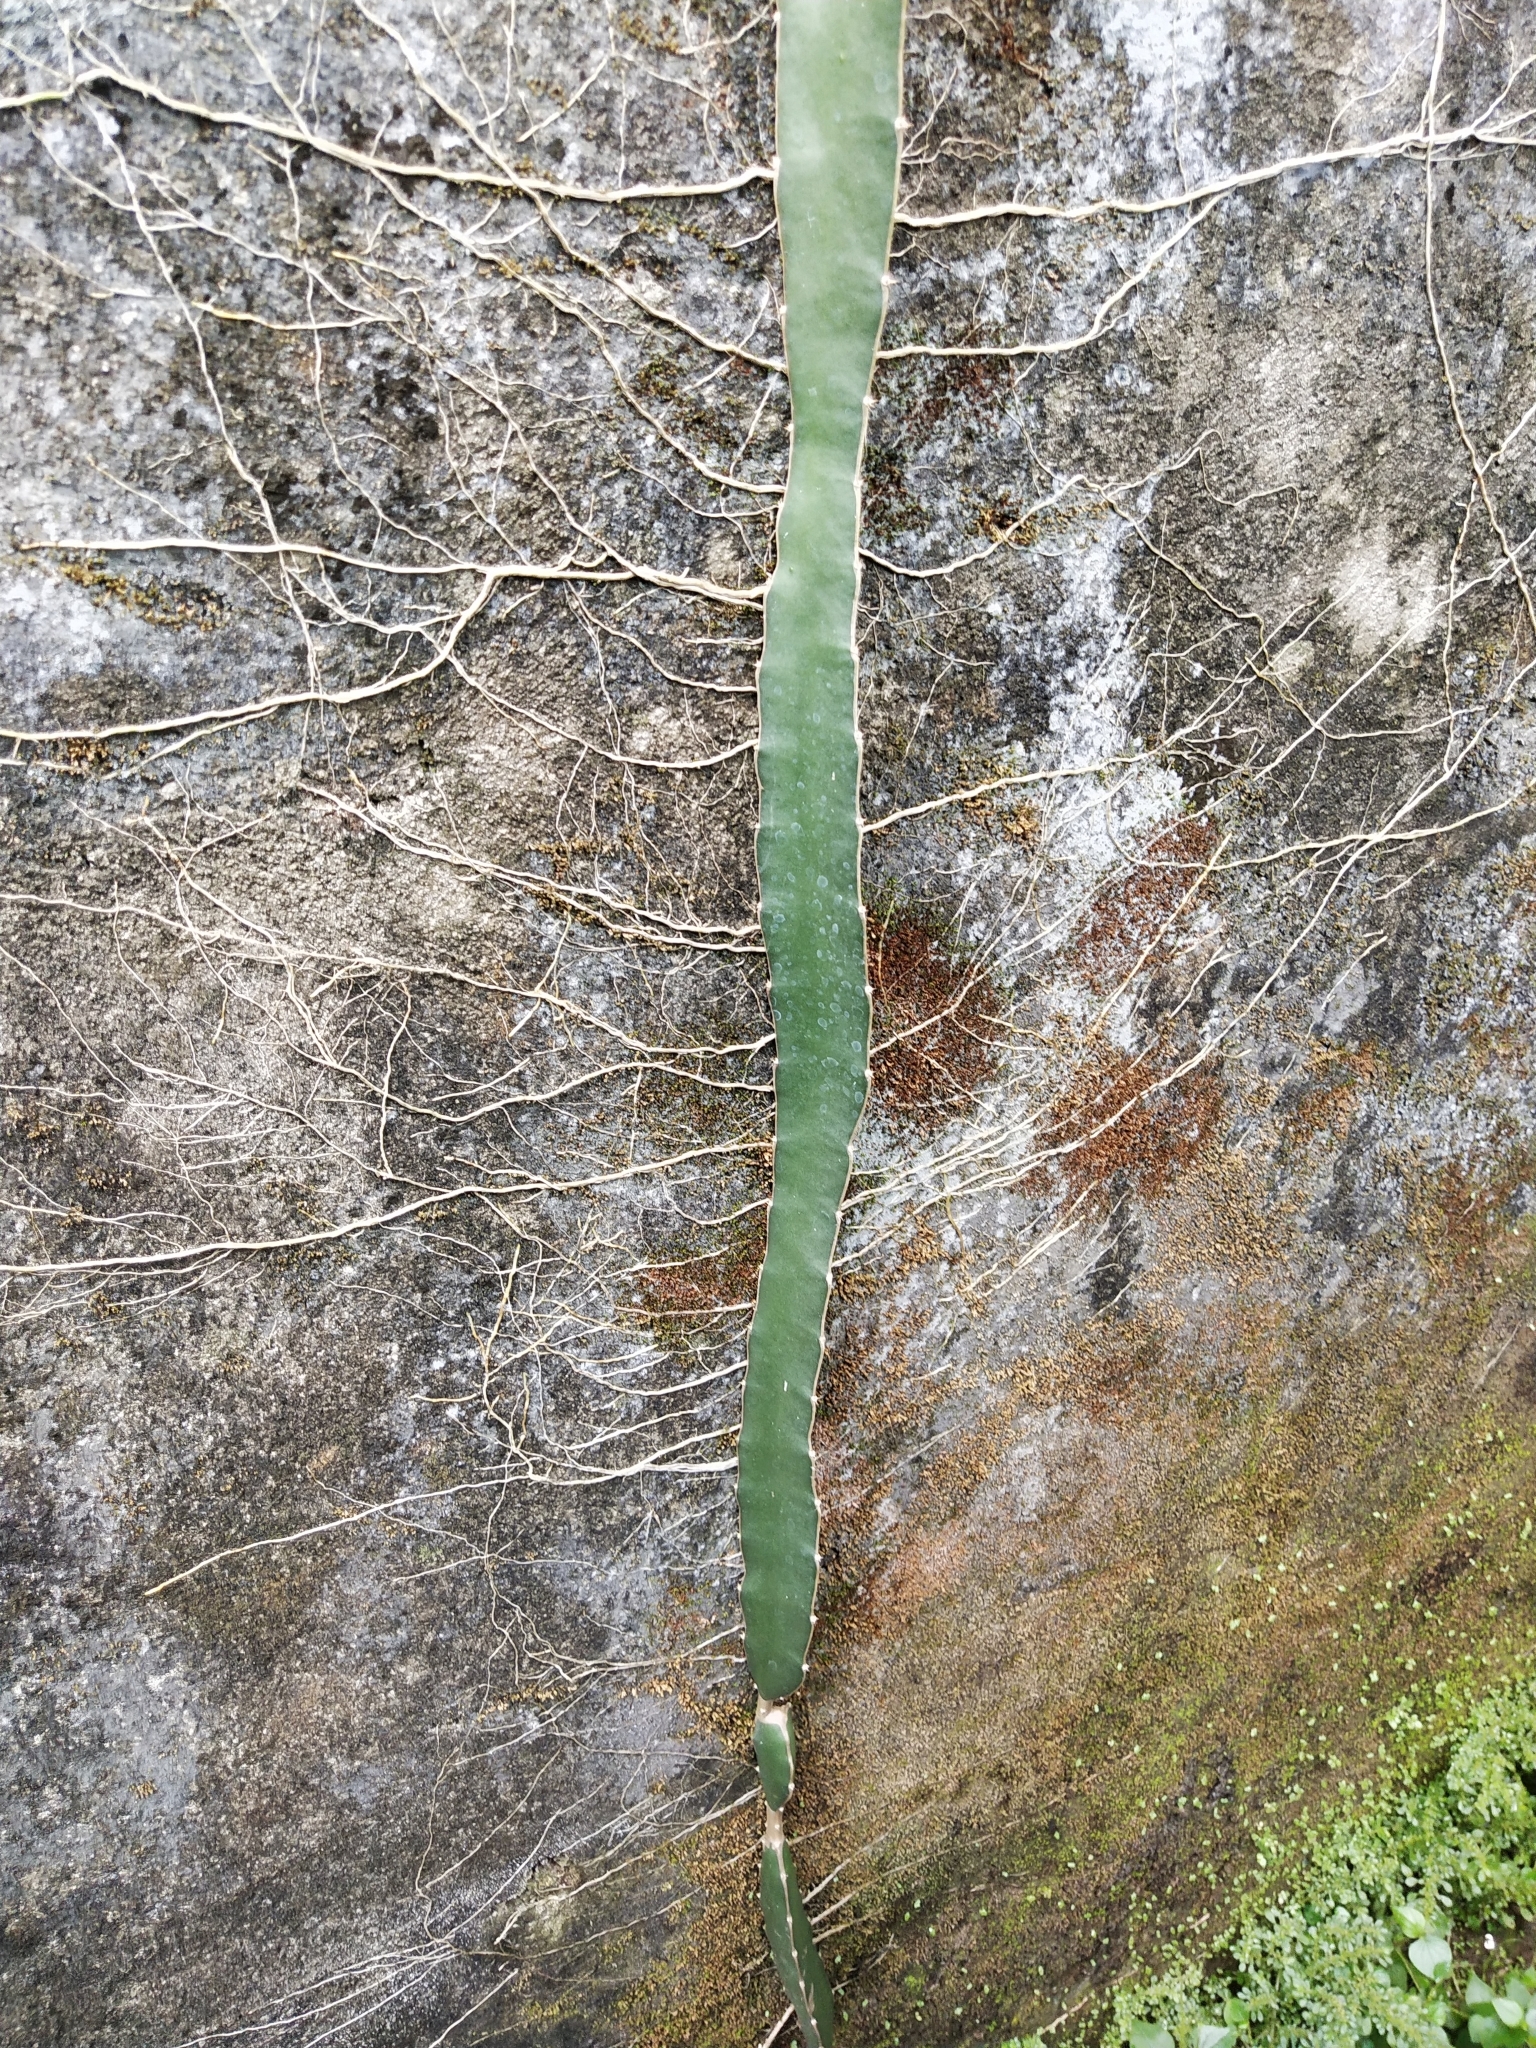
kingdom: Plantae
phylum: Tracheophyta
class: Magnoliopsida
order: Caryophyllales
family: Cactaceae
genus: Selenicereus
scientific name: Selenicereus undatus
